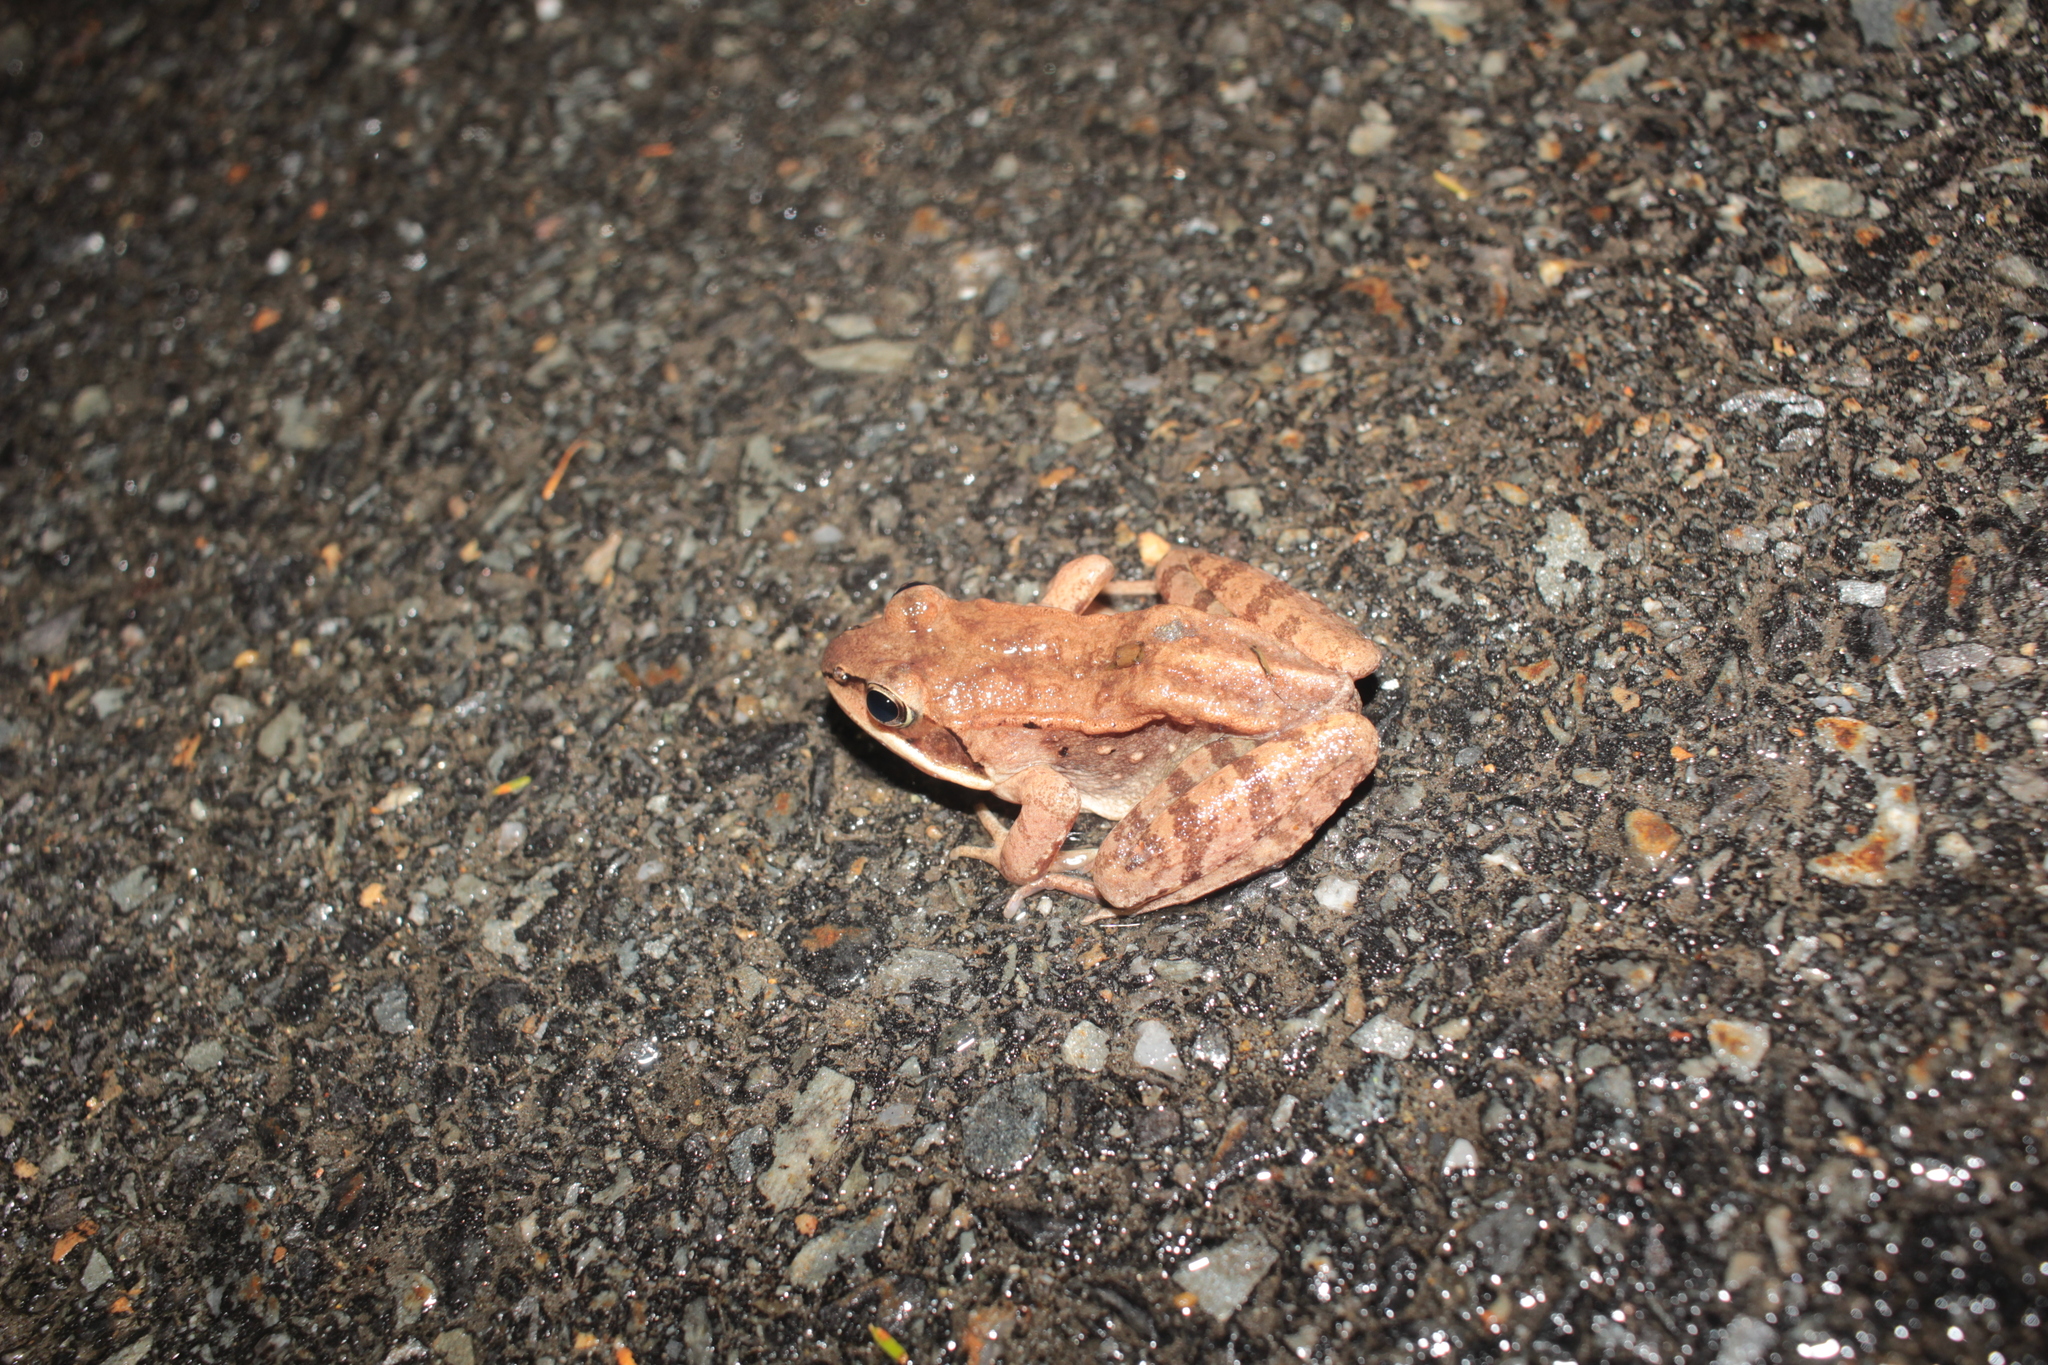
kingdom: Animalia
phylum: Chordata
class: Amphibia
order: Anura
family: Ranidae
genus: Lithobates
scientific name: Lithobates sylvaticus
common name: Wood frog
